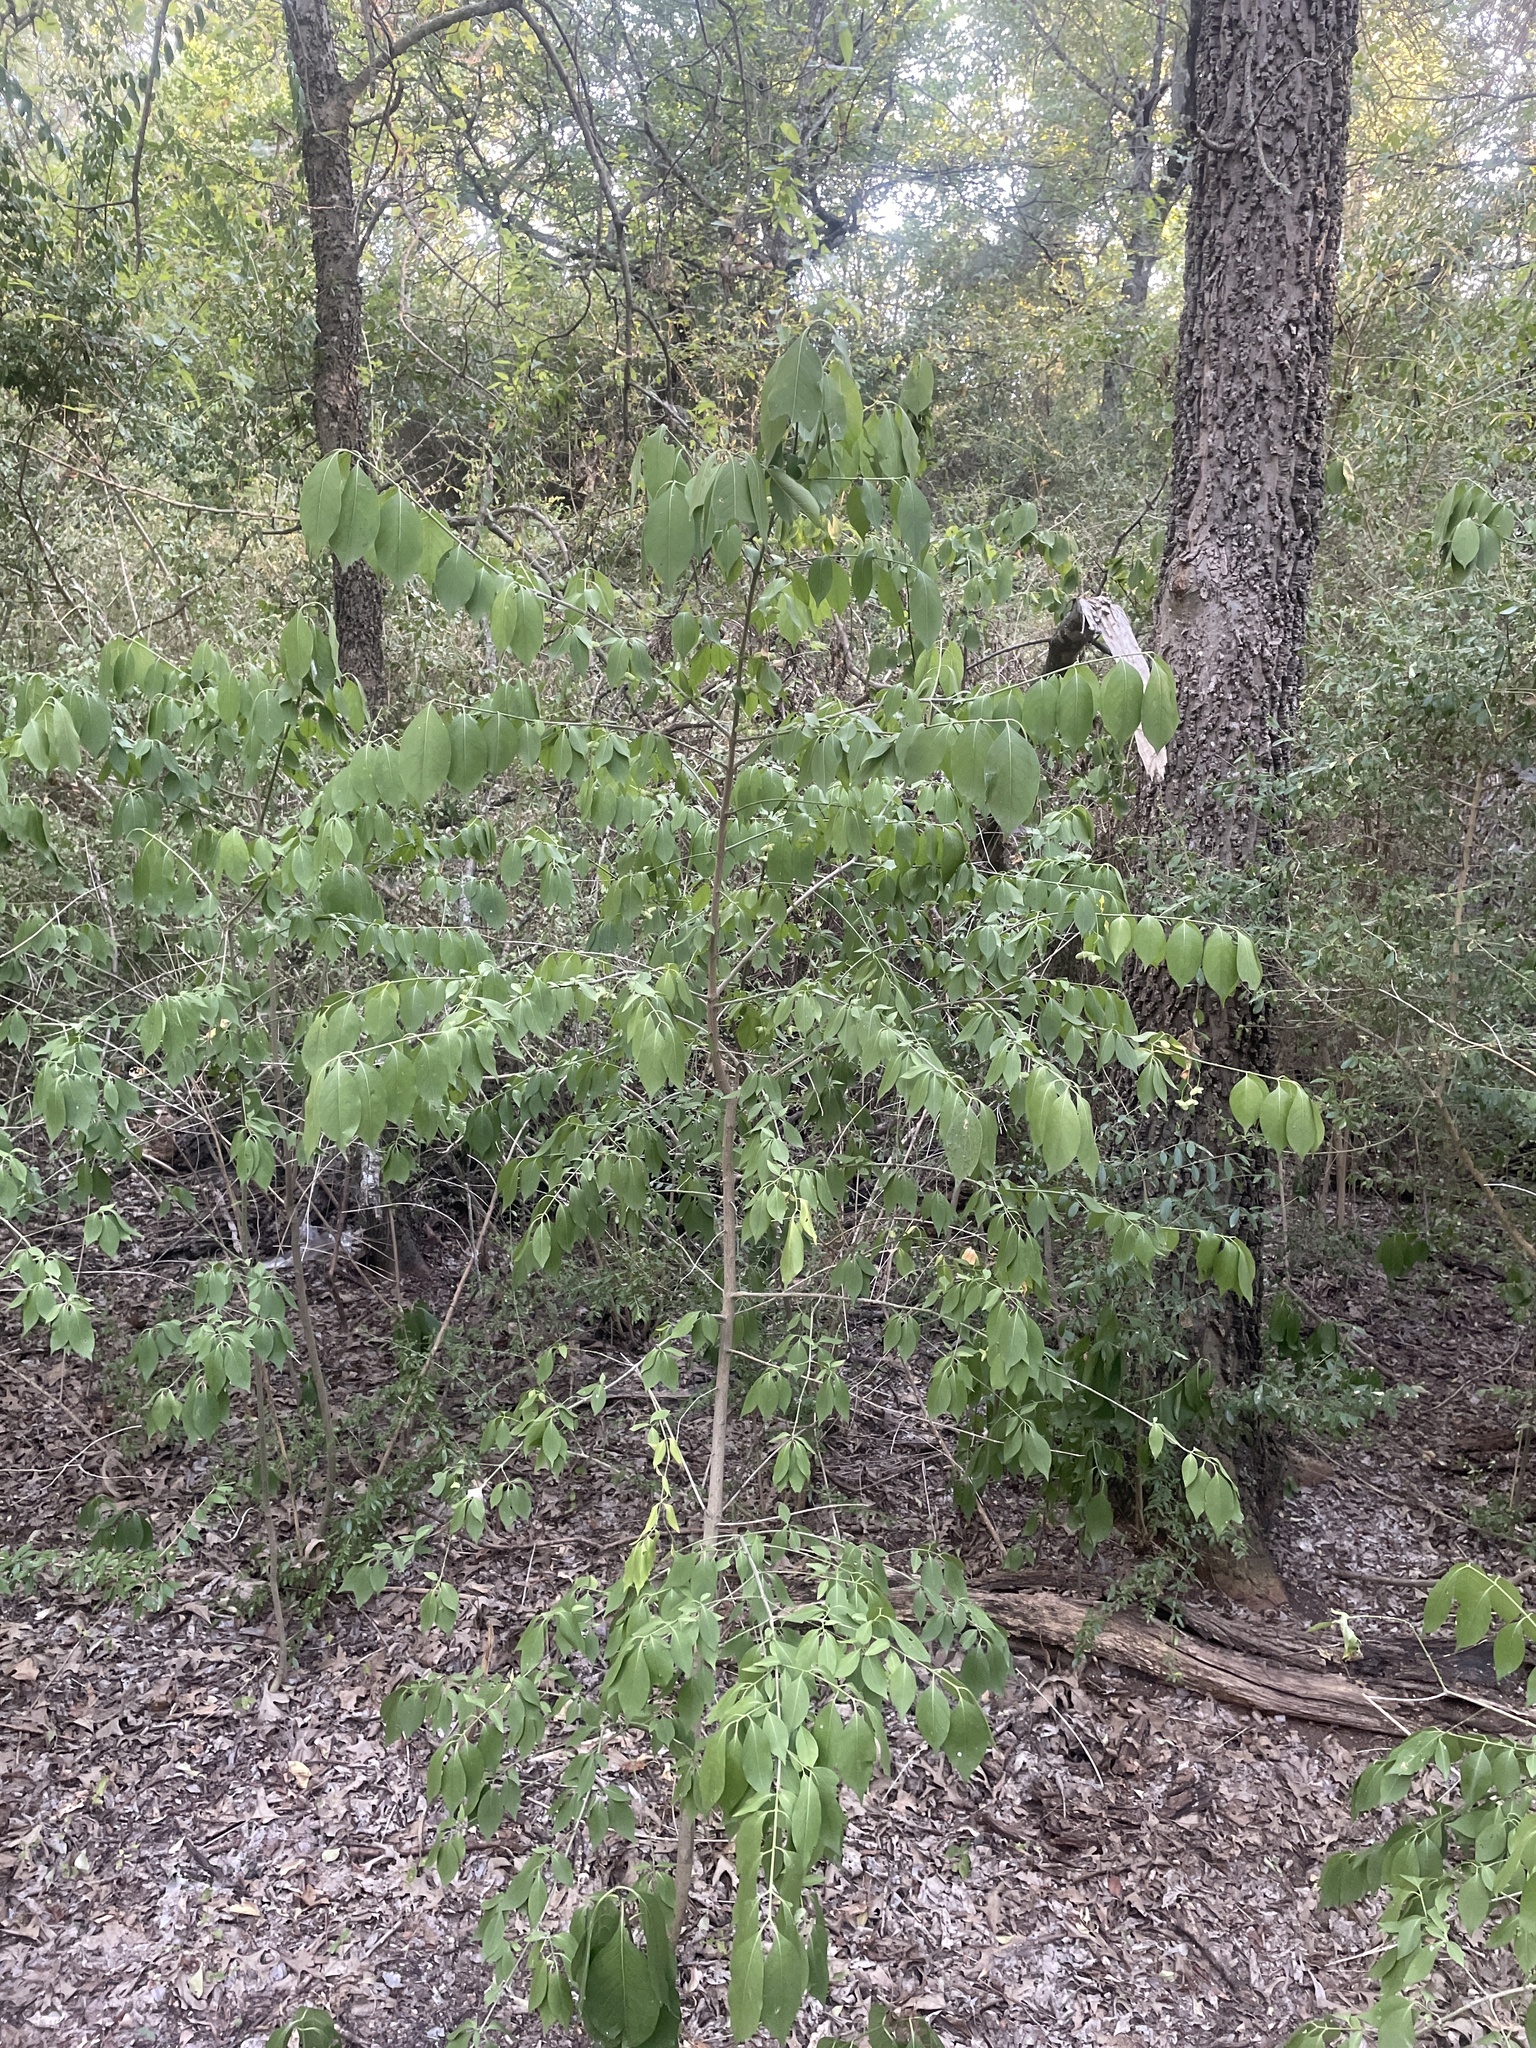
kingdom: Plantae
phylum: Tracheophyta
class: Magnoliopsida
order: Celastrales
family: Celastraceae
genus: Euonymus
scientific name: Euonymus atropurpureus
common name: Eastern wahoo
